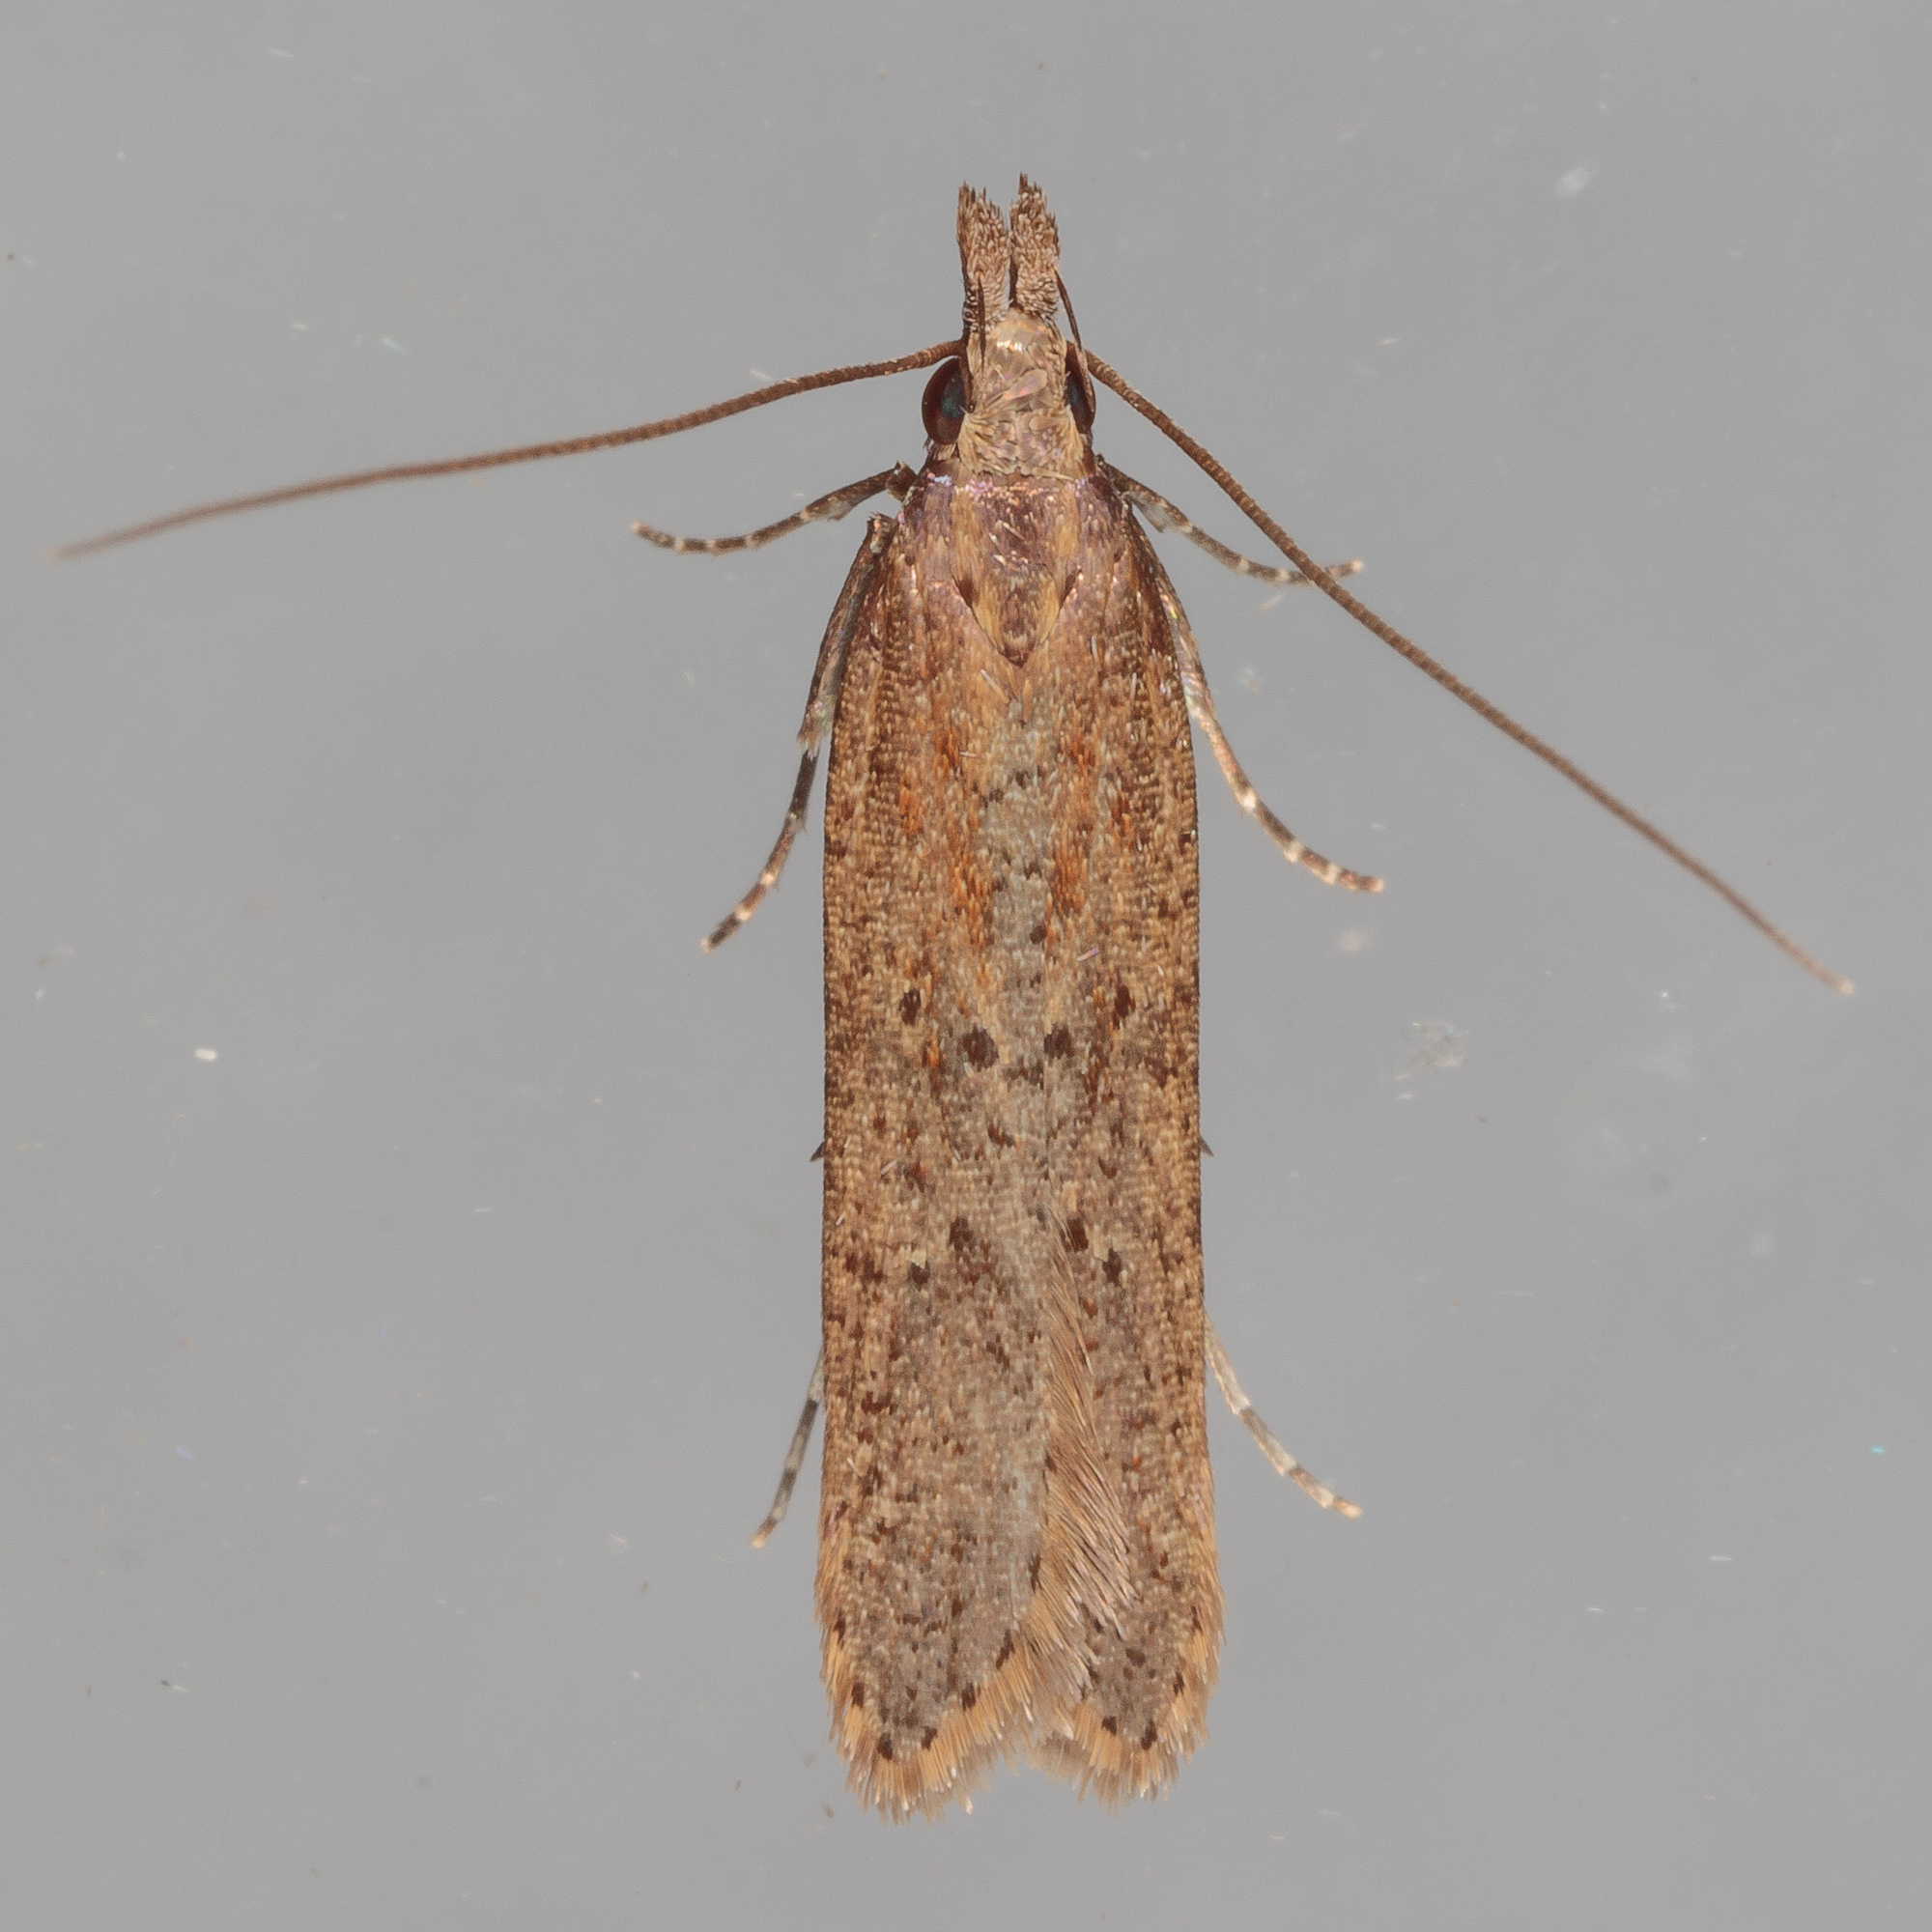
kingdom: Animalia
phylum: Arthropoda
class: Insecta
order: Lepidoptera
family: Gelechiidae
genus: Dichomeris
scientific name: Dichomeris ligulella
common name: Moth
